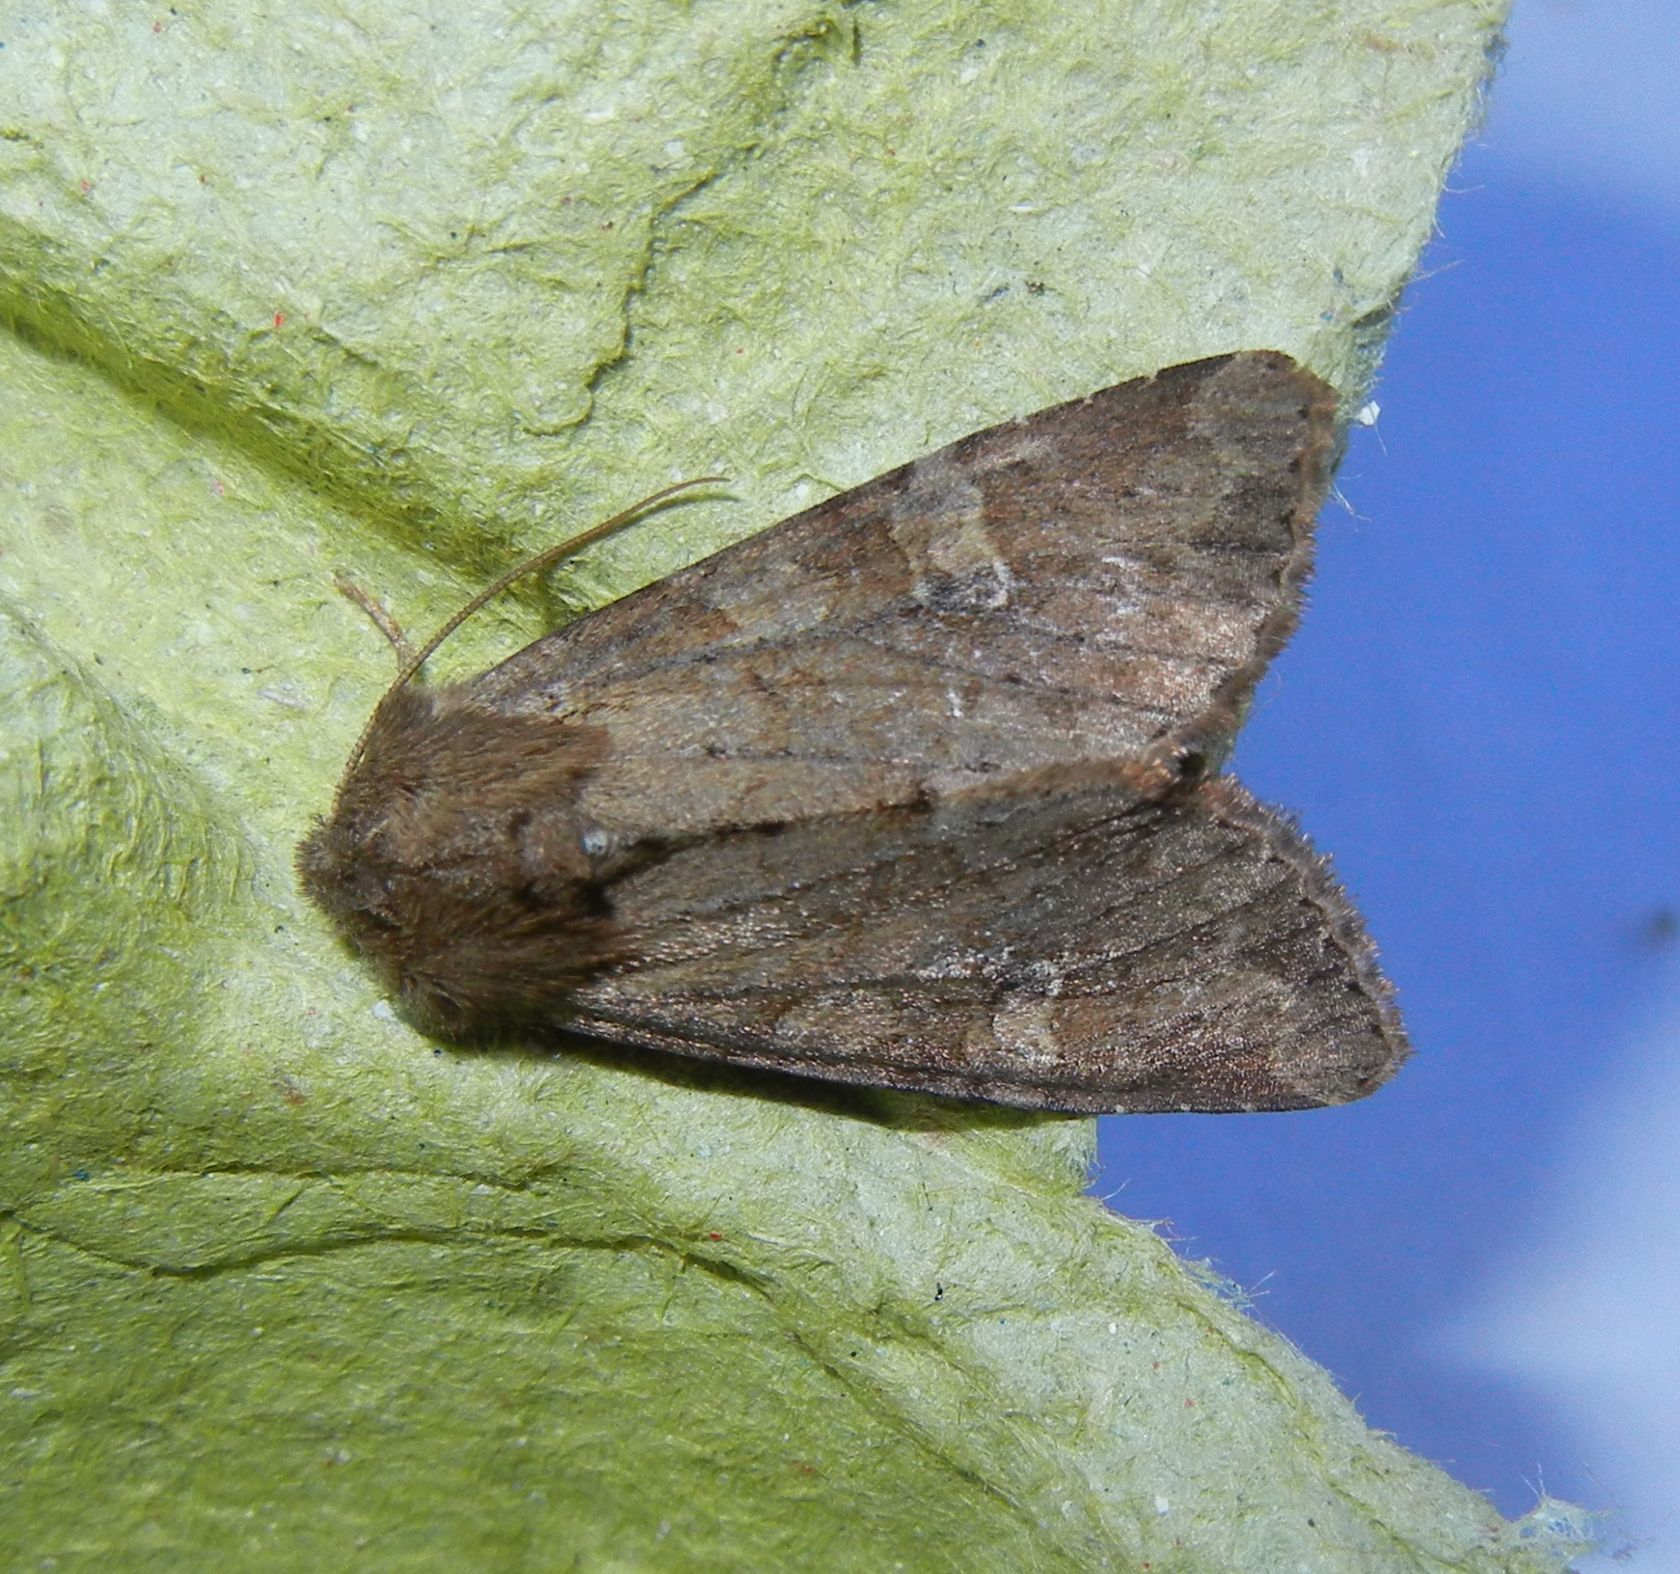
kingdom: Animalia
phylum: Arthropoda
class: Insecta
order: Lepidoptera
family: Noctuidae
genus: Apamea
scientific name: Apamea sordens
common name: Rustic shoulder-knot
